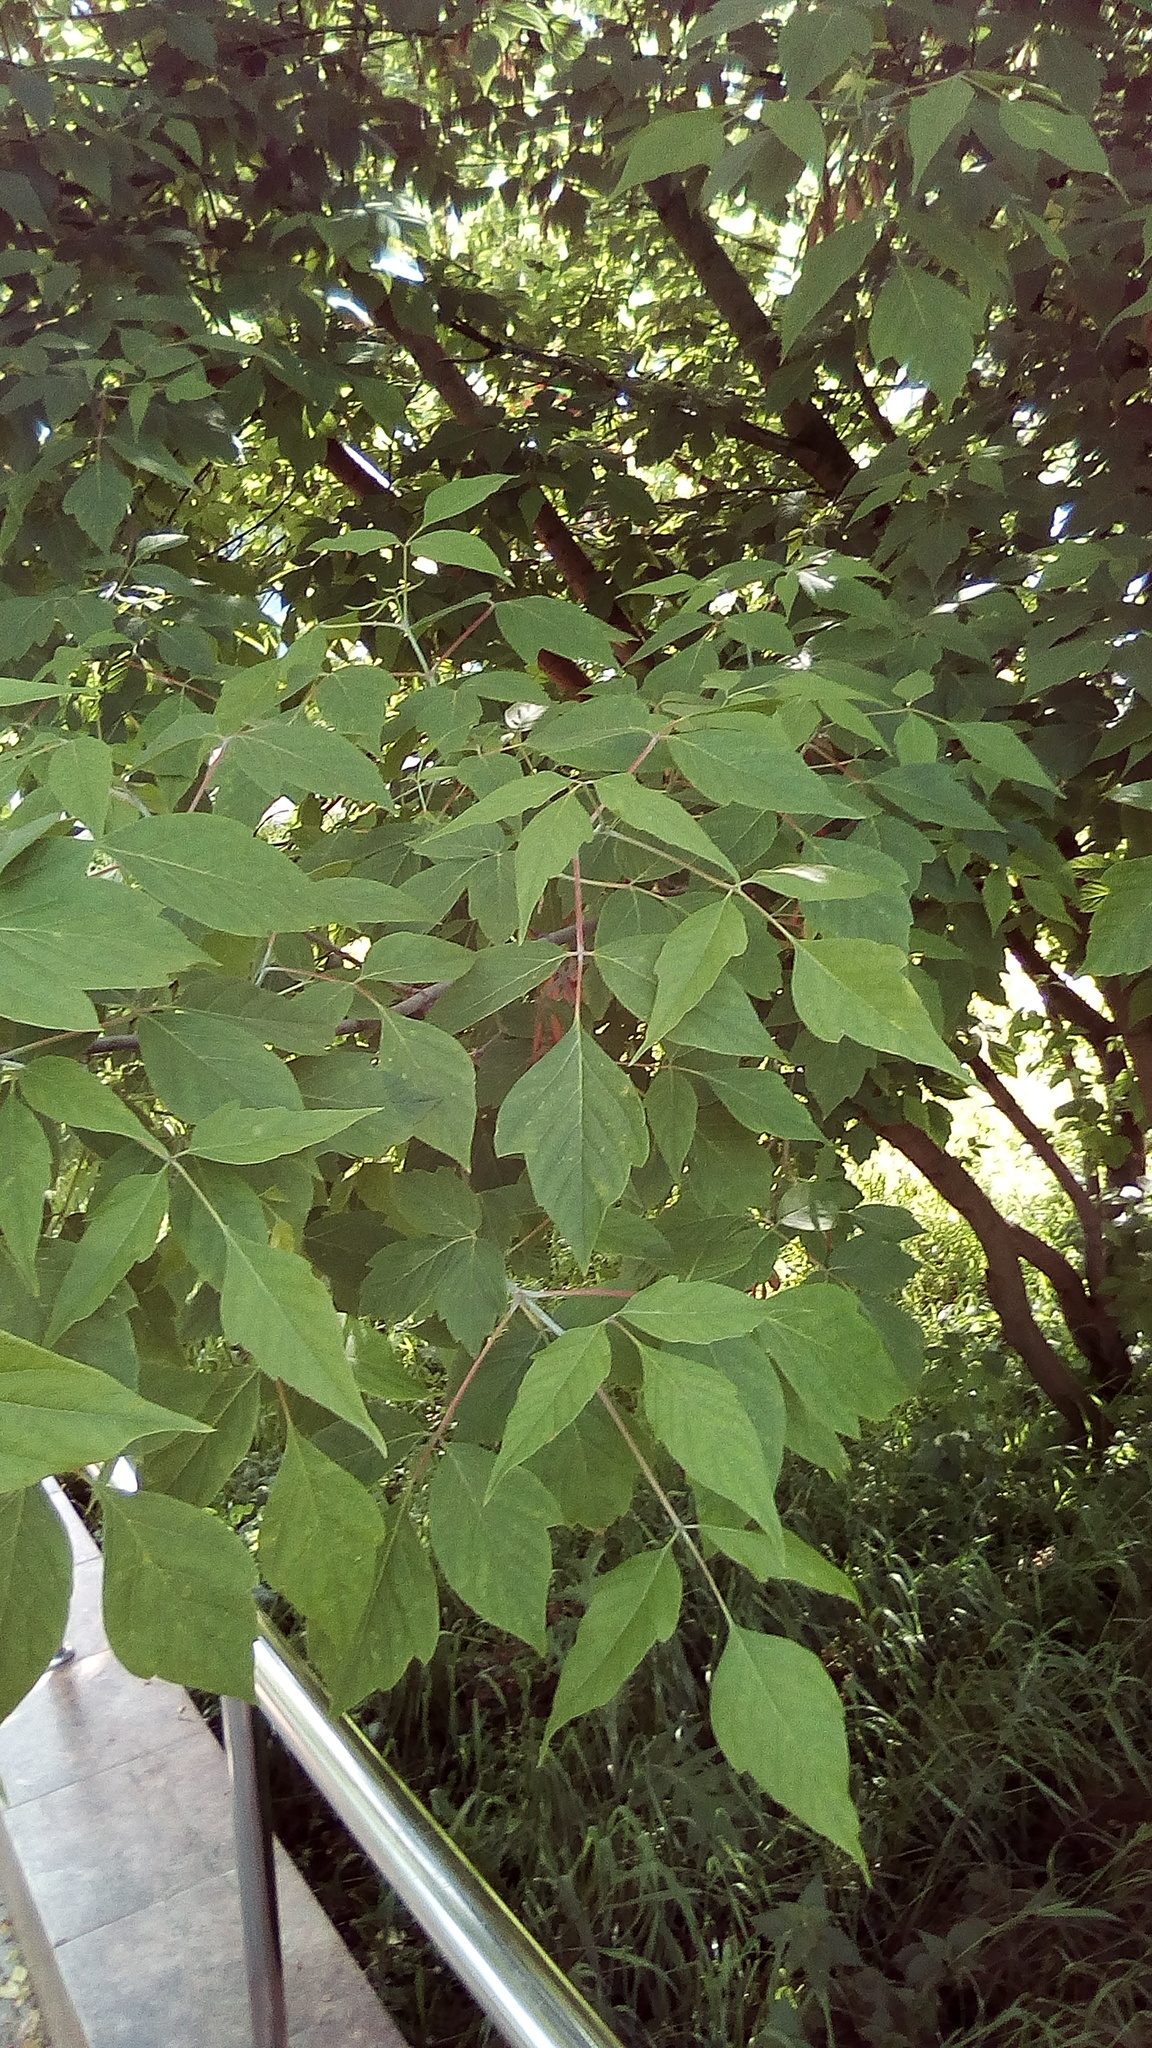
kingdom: Plantae
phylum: Tracheophyta
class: Magnoliopsida
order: Sapindales
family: Sapindaceae
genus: Acer
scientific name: Acer negundo
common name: Ashleaf maple
